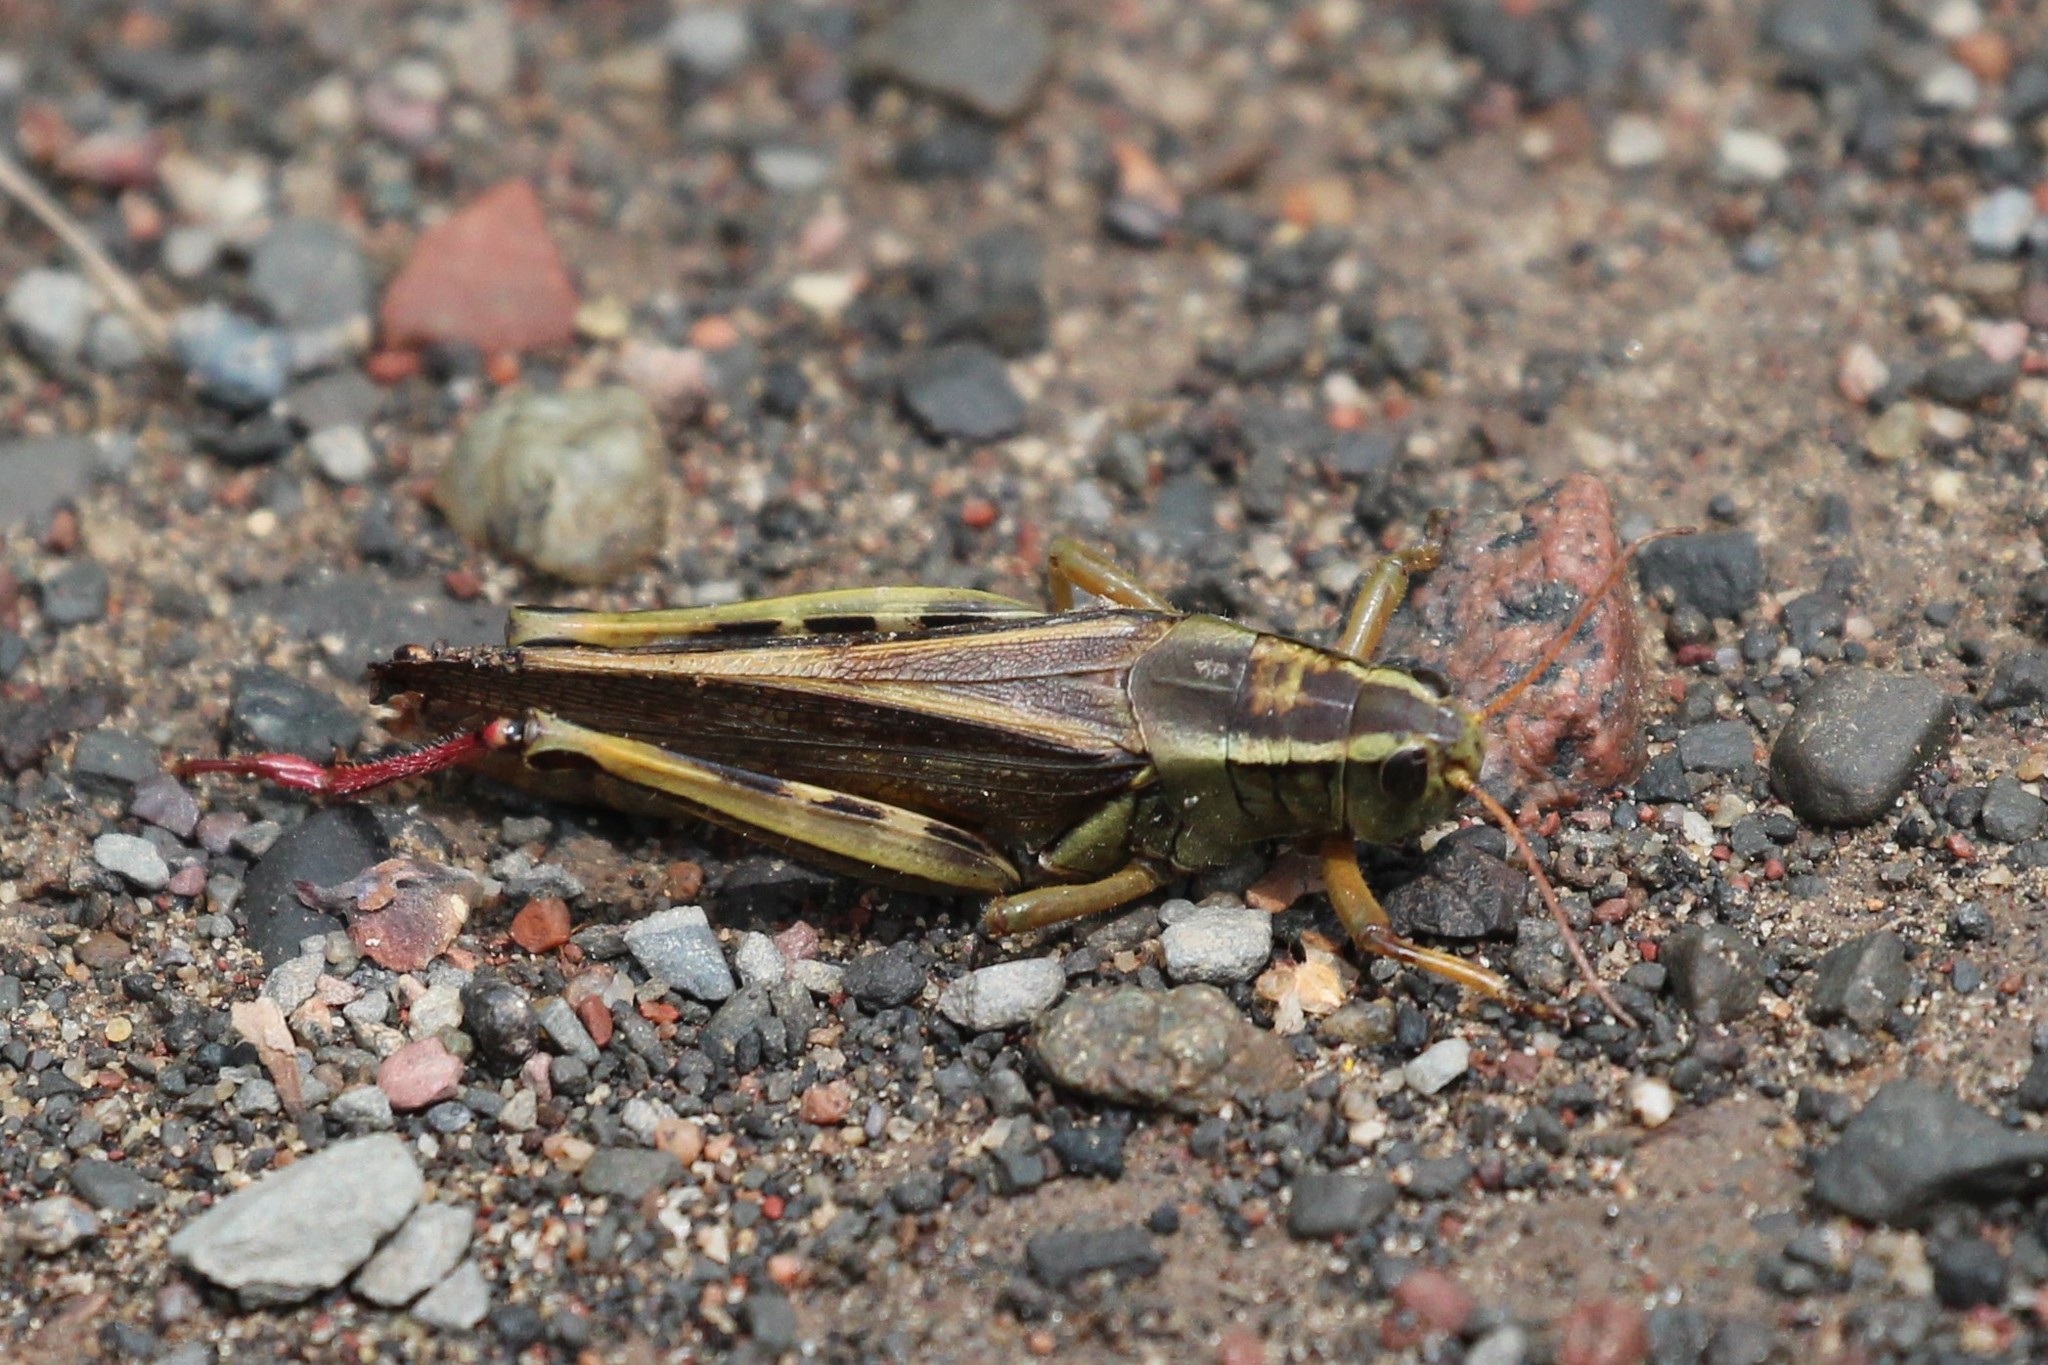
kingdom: Animalia
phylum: Arthropoda
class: Insecta
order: Orthoptera
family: Acrididae
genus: Melanoplus
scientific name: Melanoplus bivittatus
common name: Two-striped grasshopper
